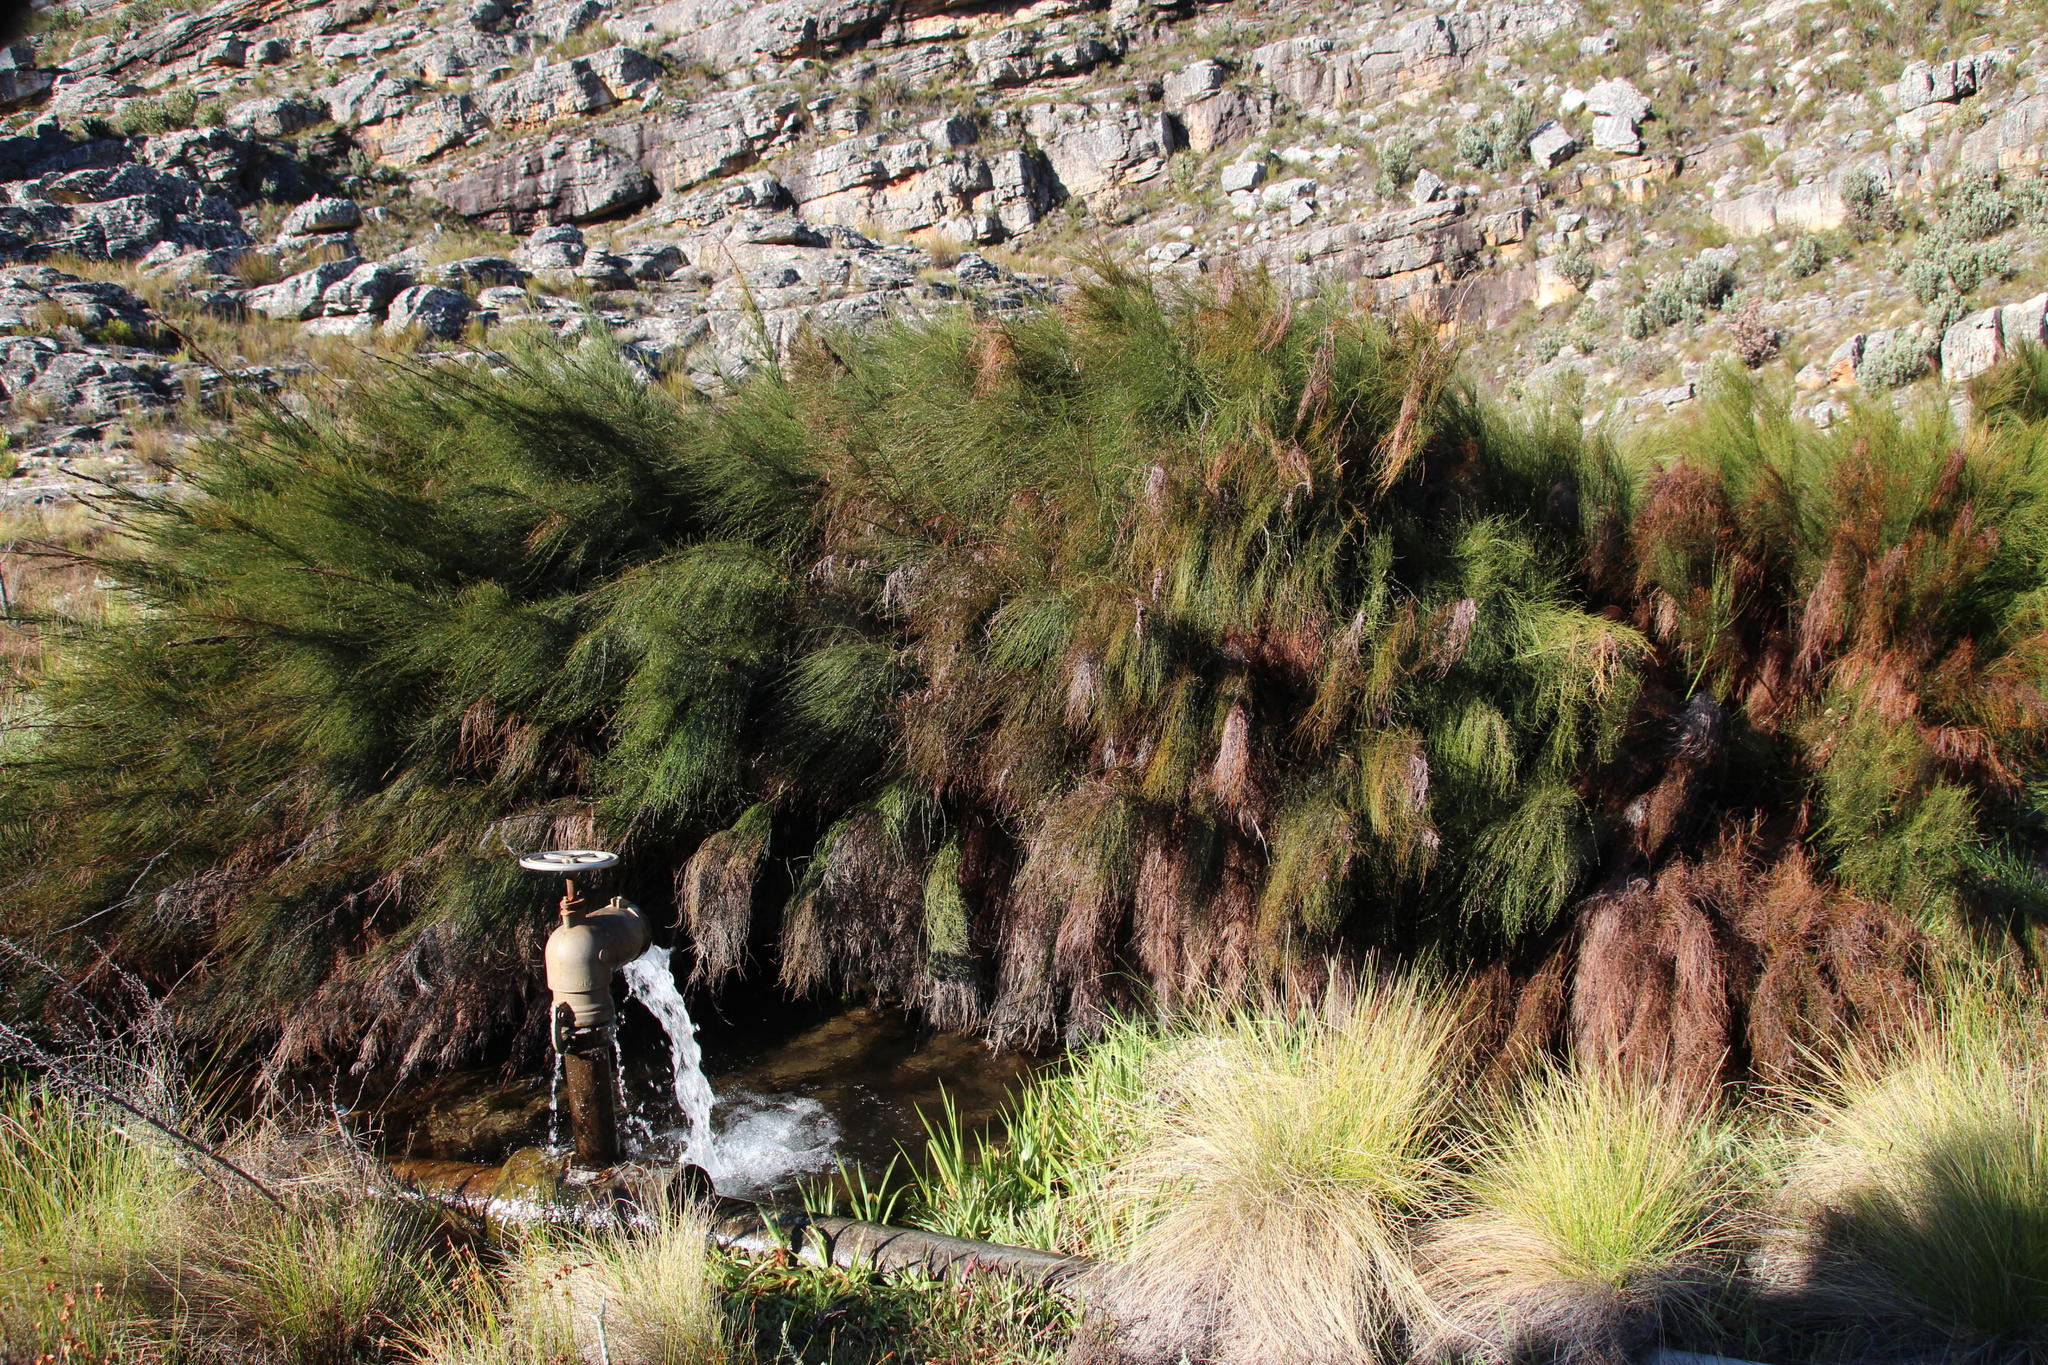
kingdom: Plantae
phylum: Tracheophyta
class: Liliopsida
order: Poales
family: Restionaceae
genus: Elegia
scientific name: Elegia capensis
